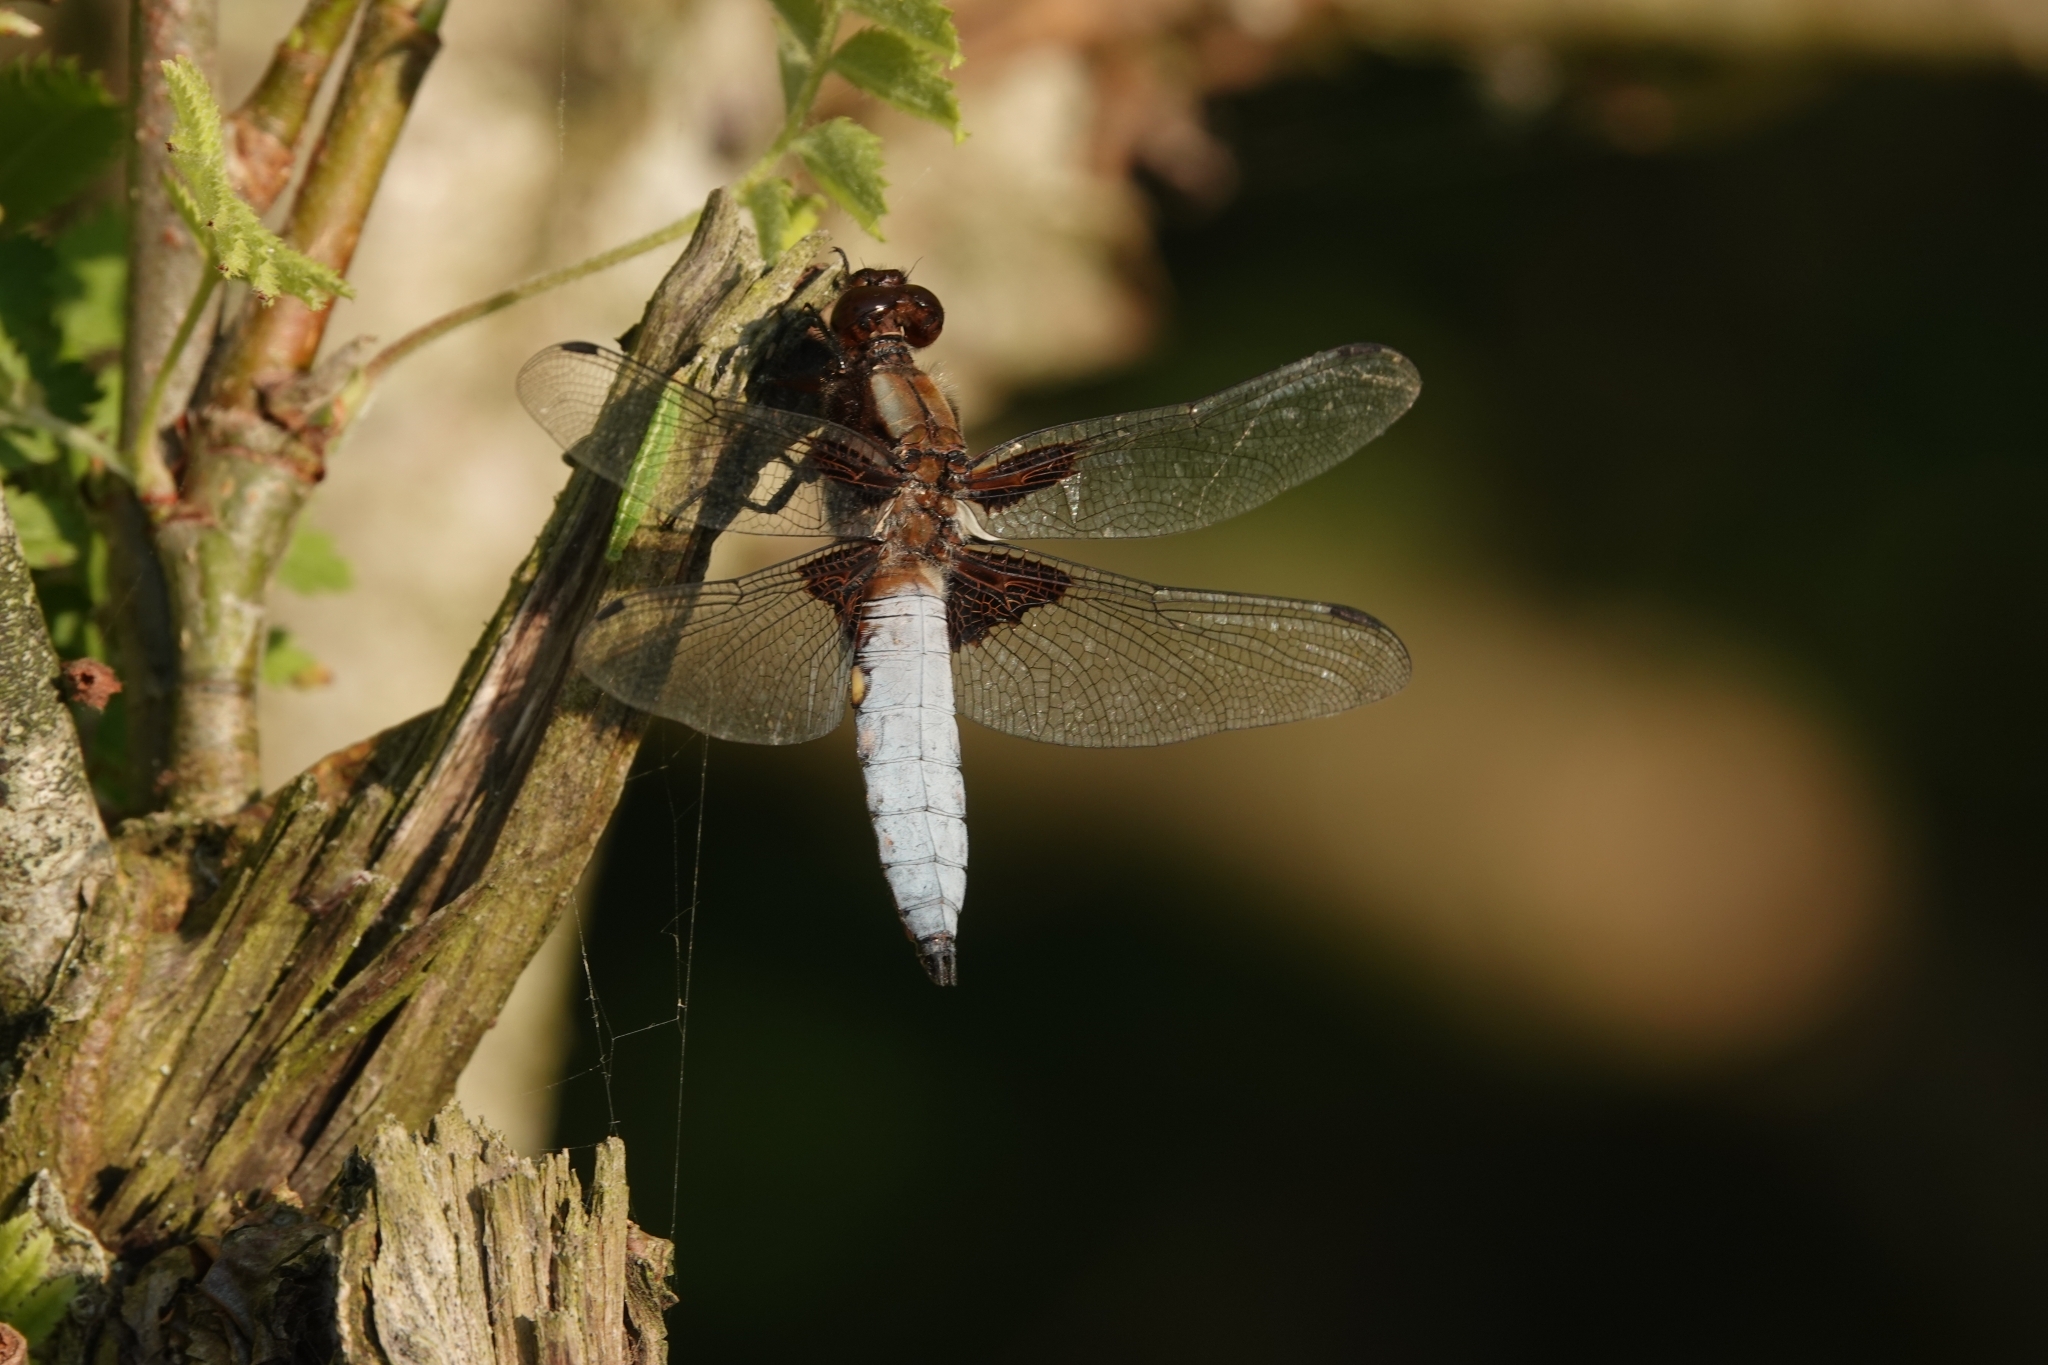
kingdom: Animalia
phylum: Arthropoda
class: Insecta
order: Odonata
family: Libellulidae
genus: Libellula
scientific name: Libellula depressa
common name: Broad-bodied chaser
